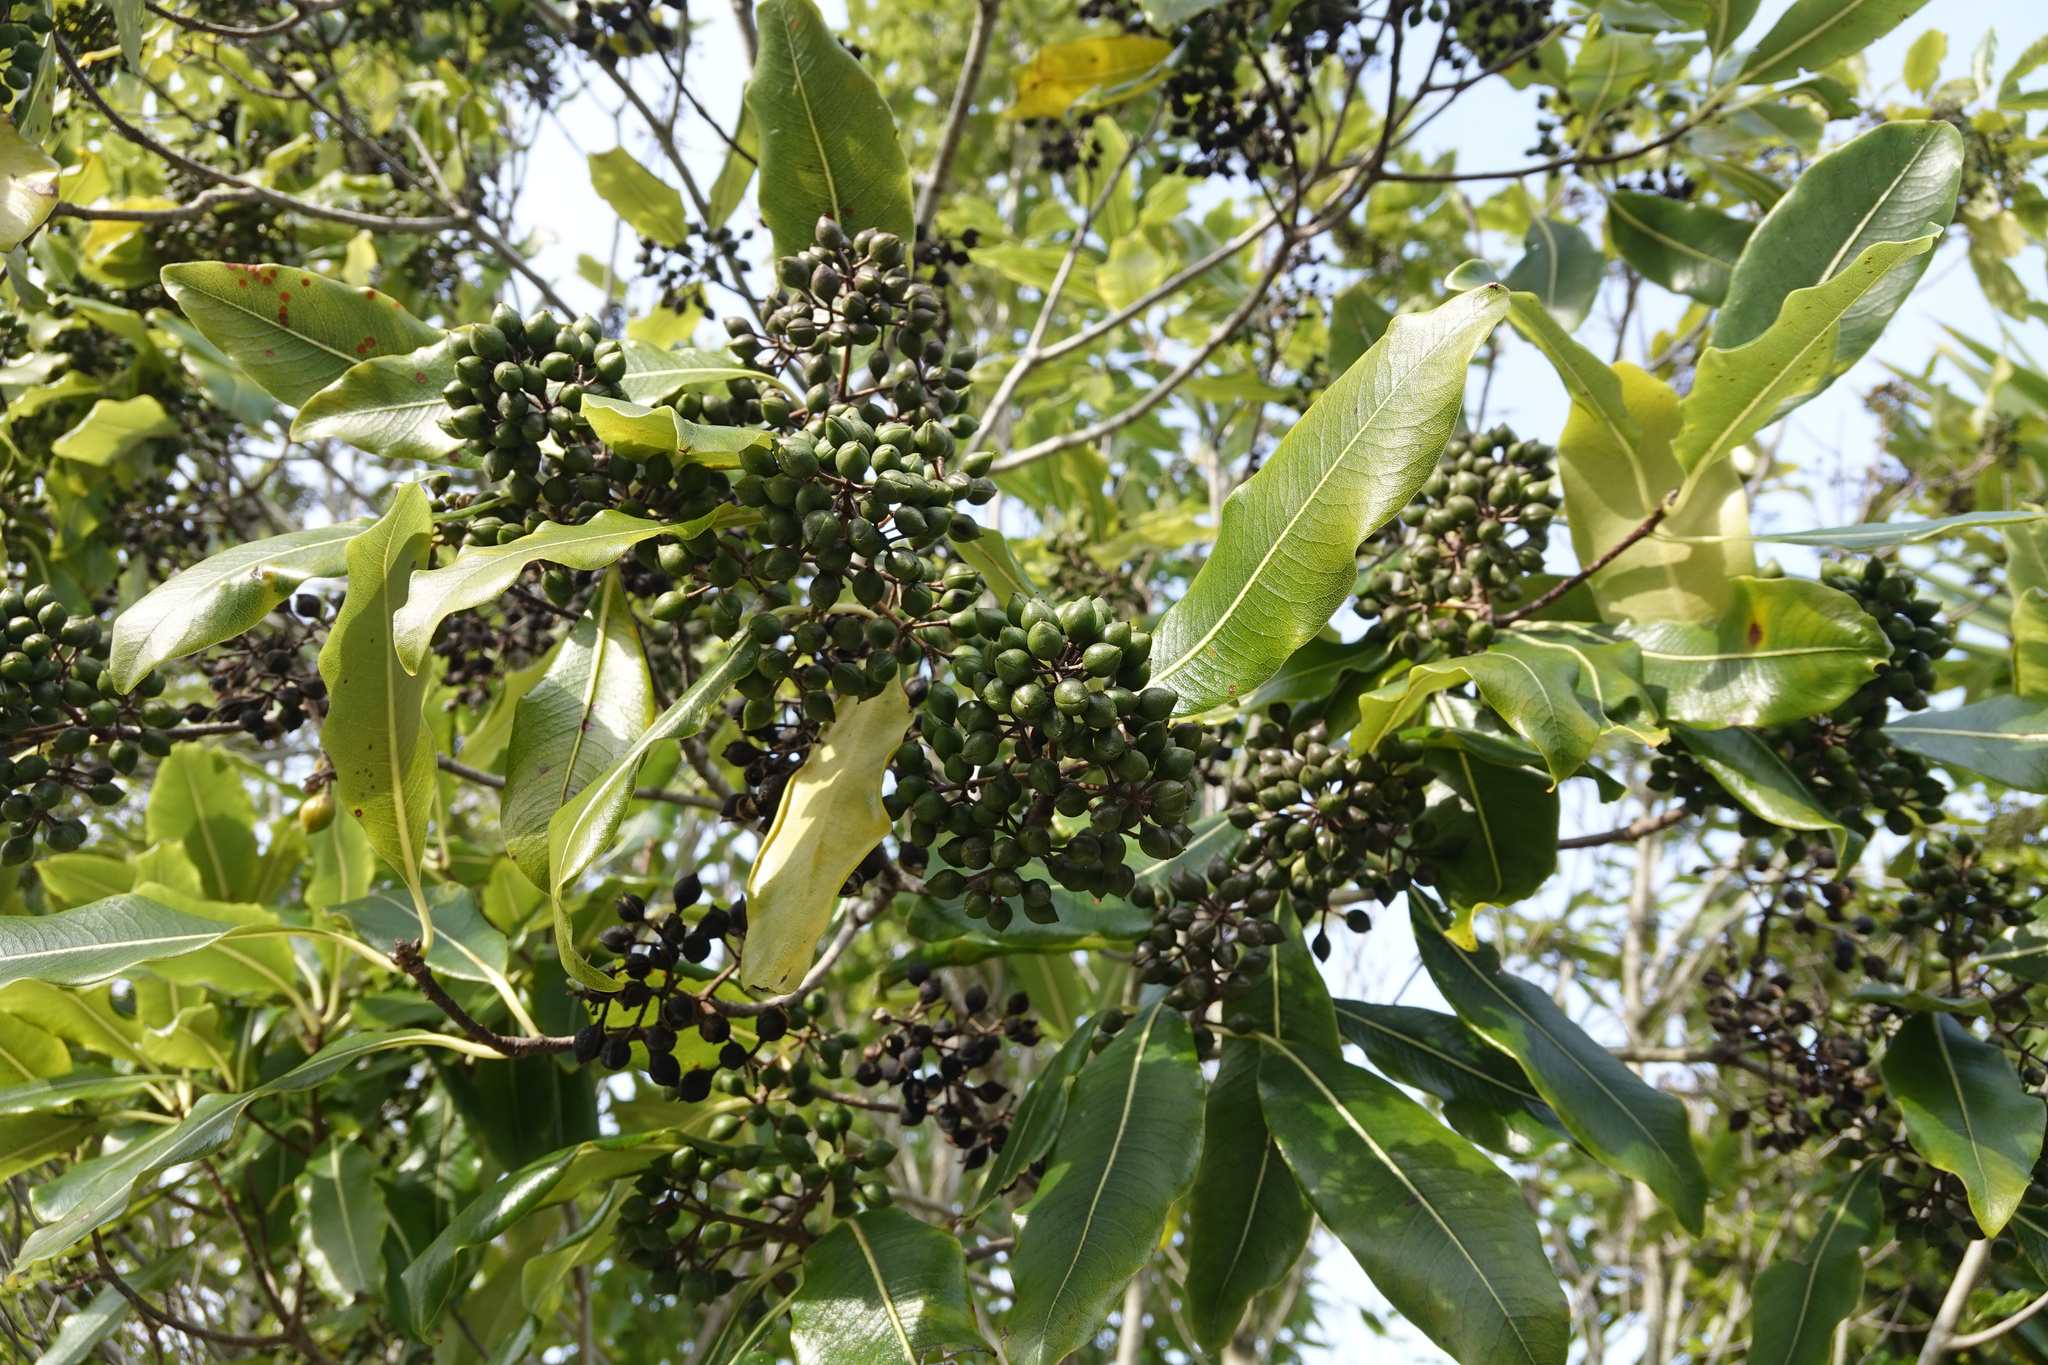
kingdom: Plantae
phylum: Tracheophyta
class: Magnoliopsida
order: Apiales
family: Pittosporaceae
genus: Pittosporum
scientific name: Pittosporum eugenioides
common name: Lemonwood
